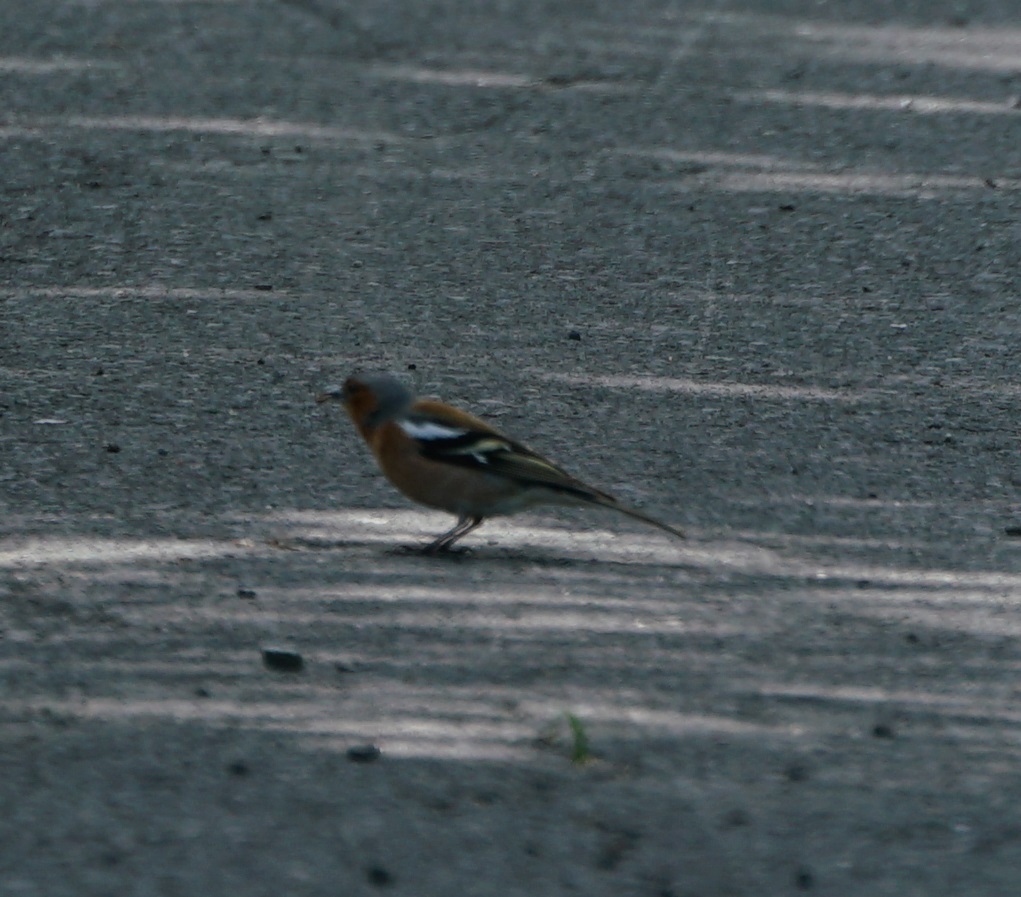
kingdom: Animalia
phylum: Chordata
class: Aves
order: Passeriformes
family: Fringillidae
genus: Fringilla
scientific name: Fringilla coelebs
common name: Common chaffinch
